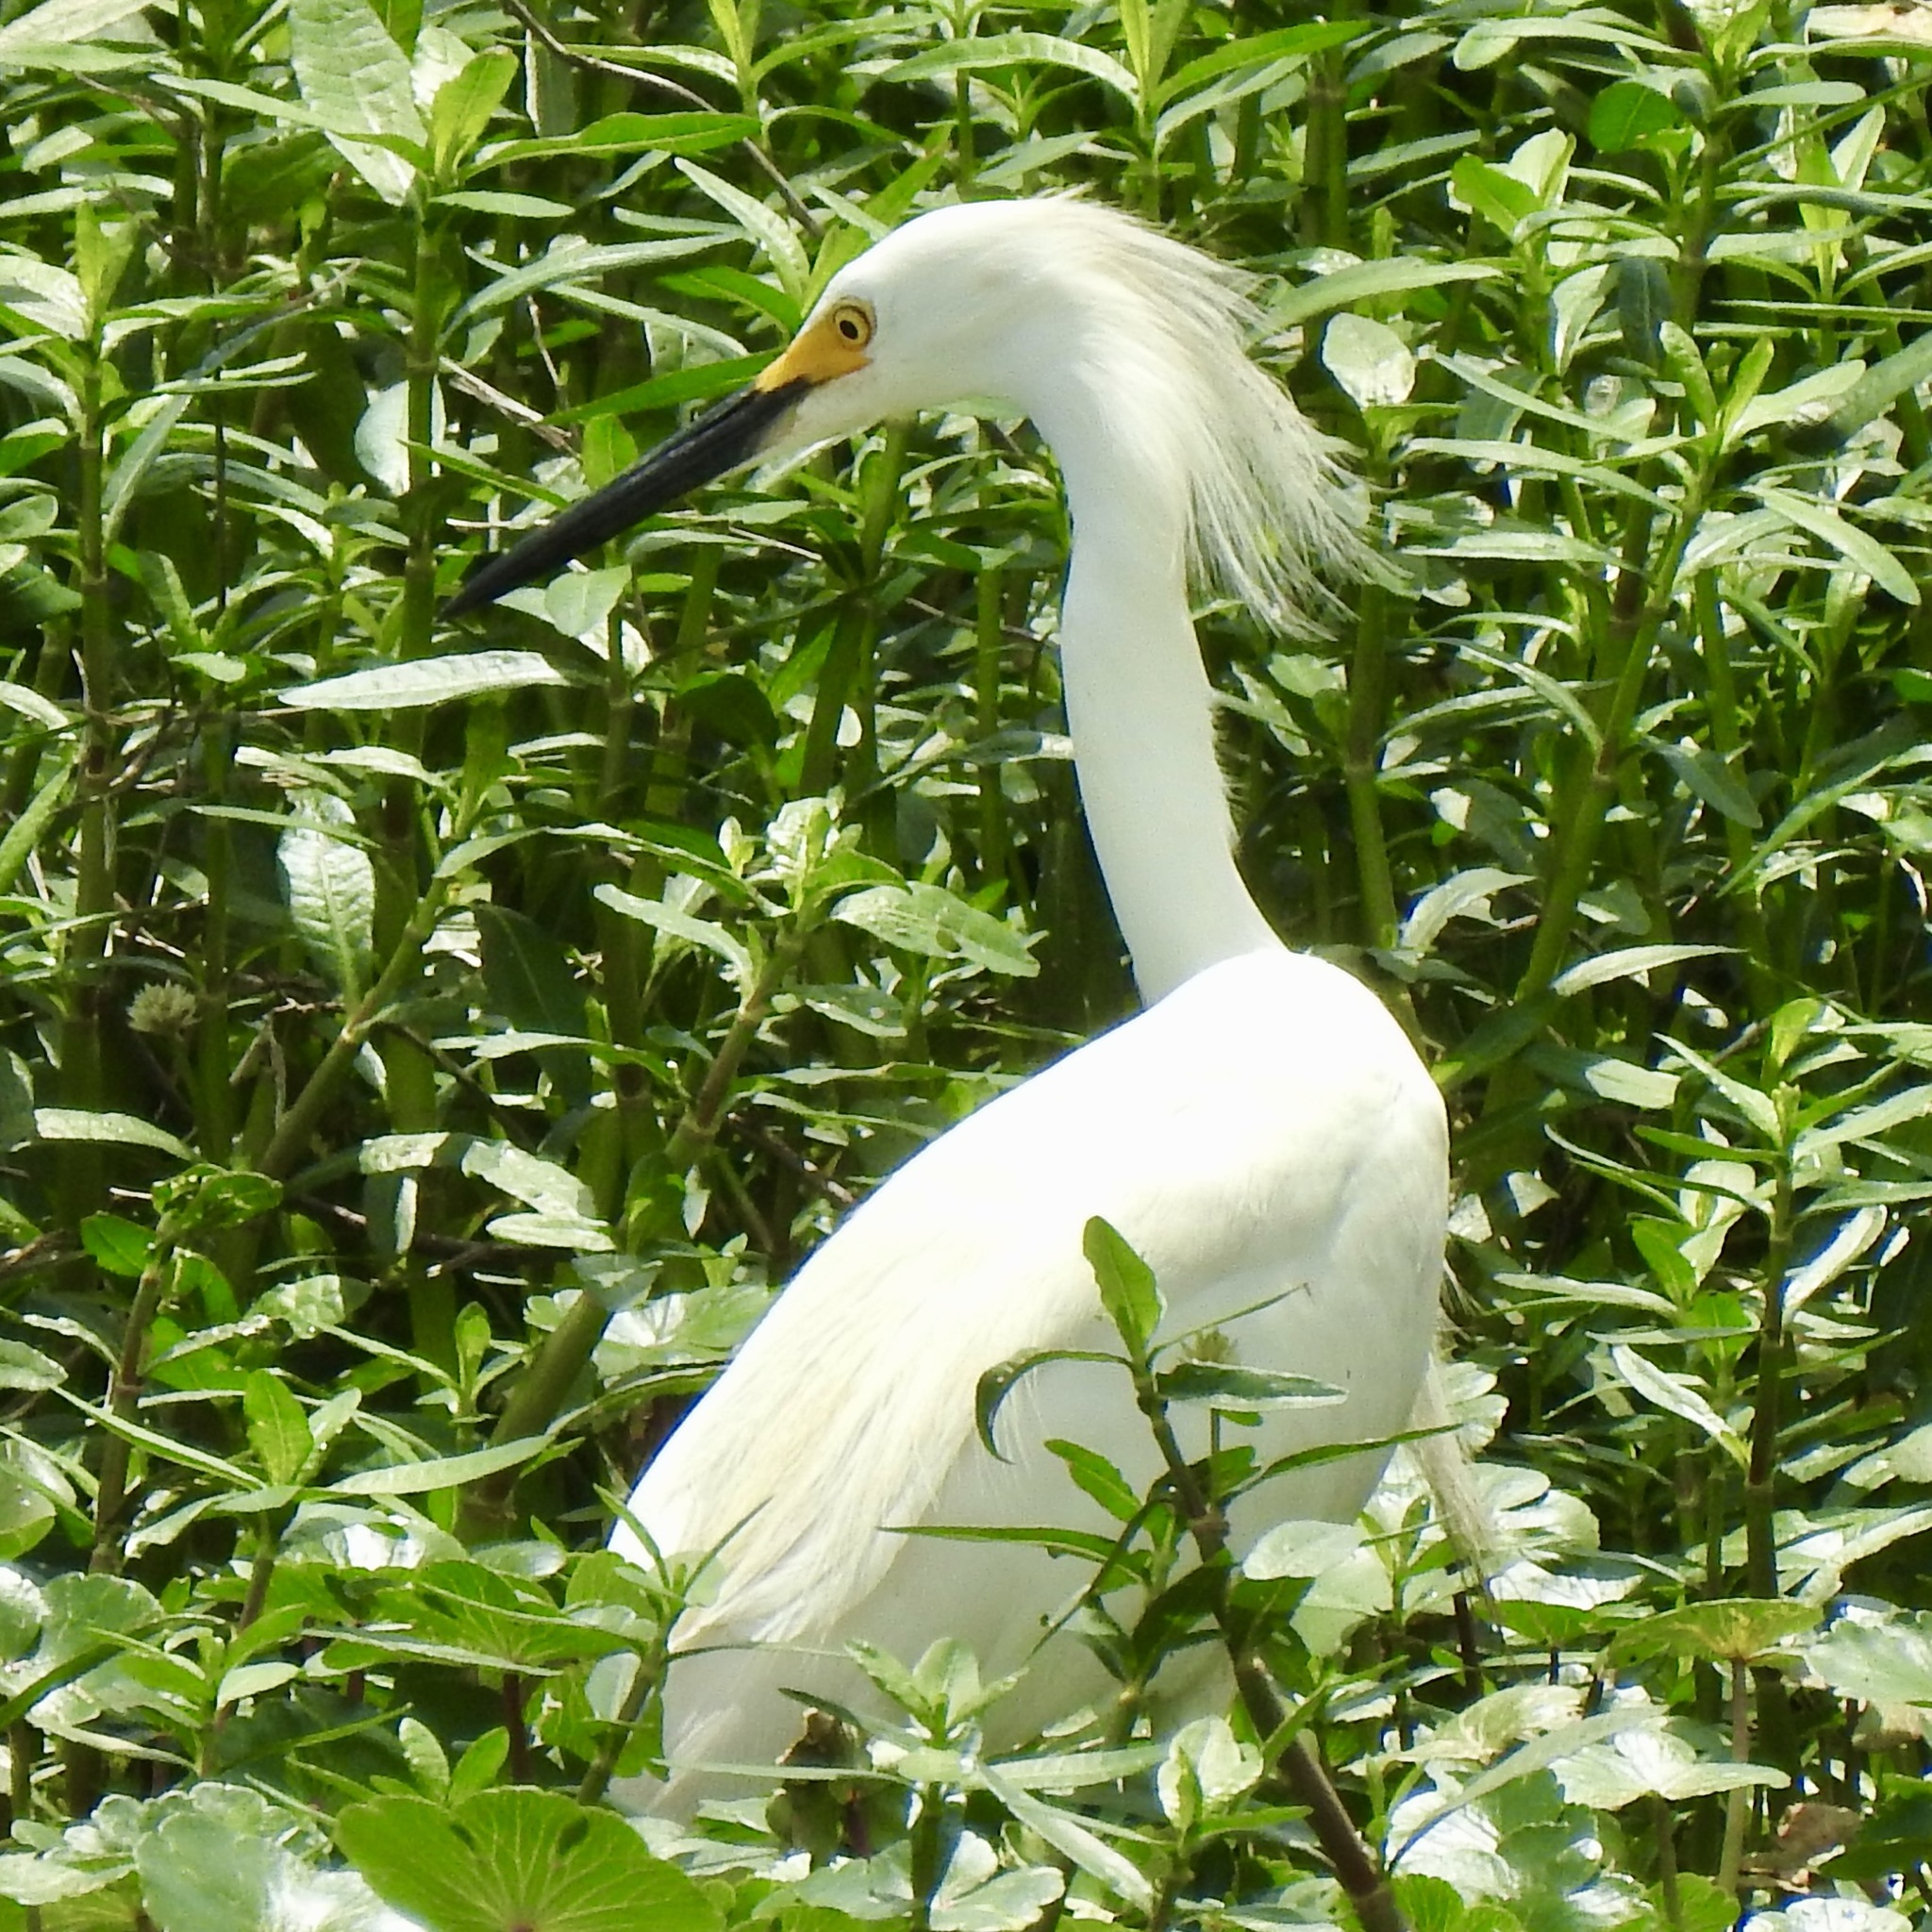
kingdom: Animalia
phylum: Chordata
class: Aves
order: Pelecaniformes
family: Ardeidae
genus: Egretta
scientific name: Egretta thula
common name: Snowy egret
